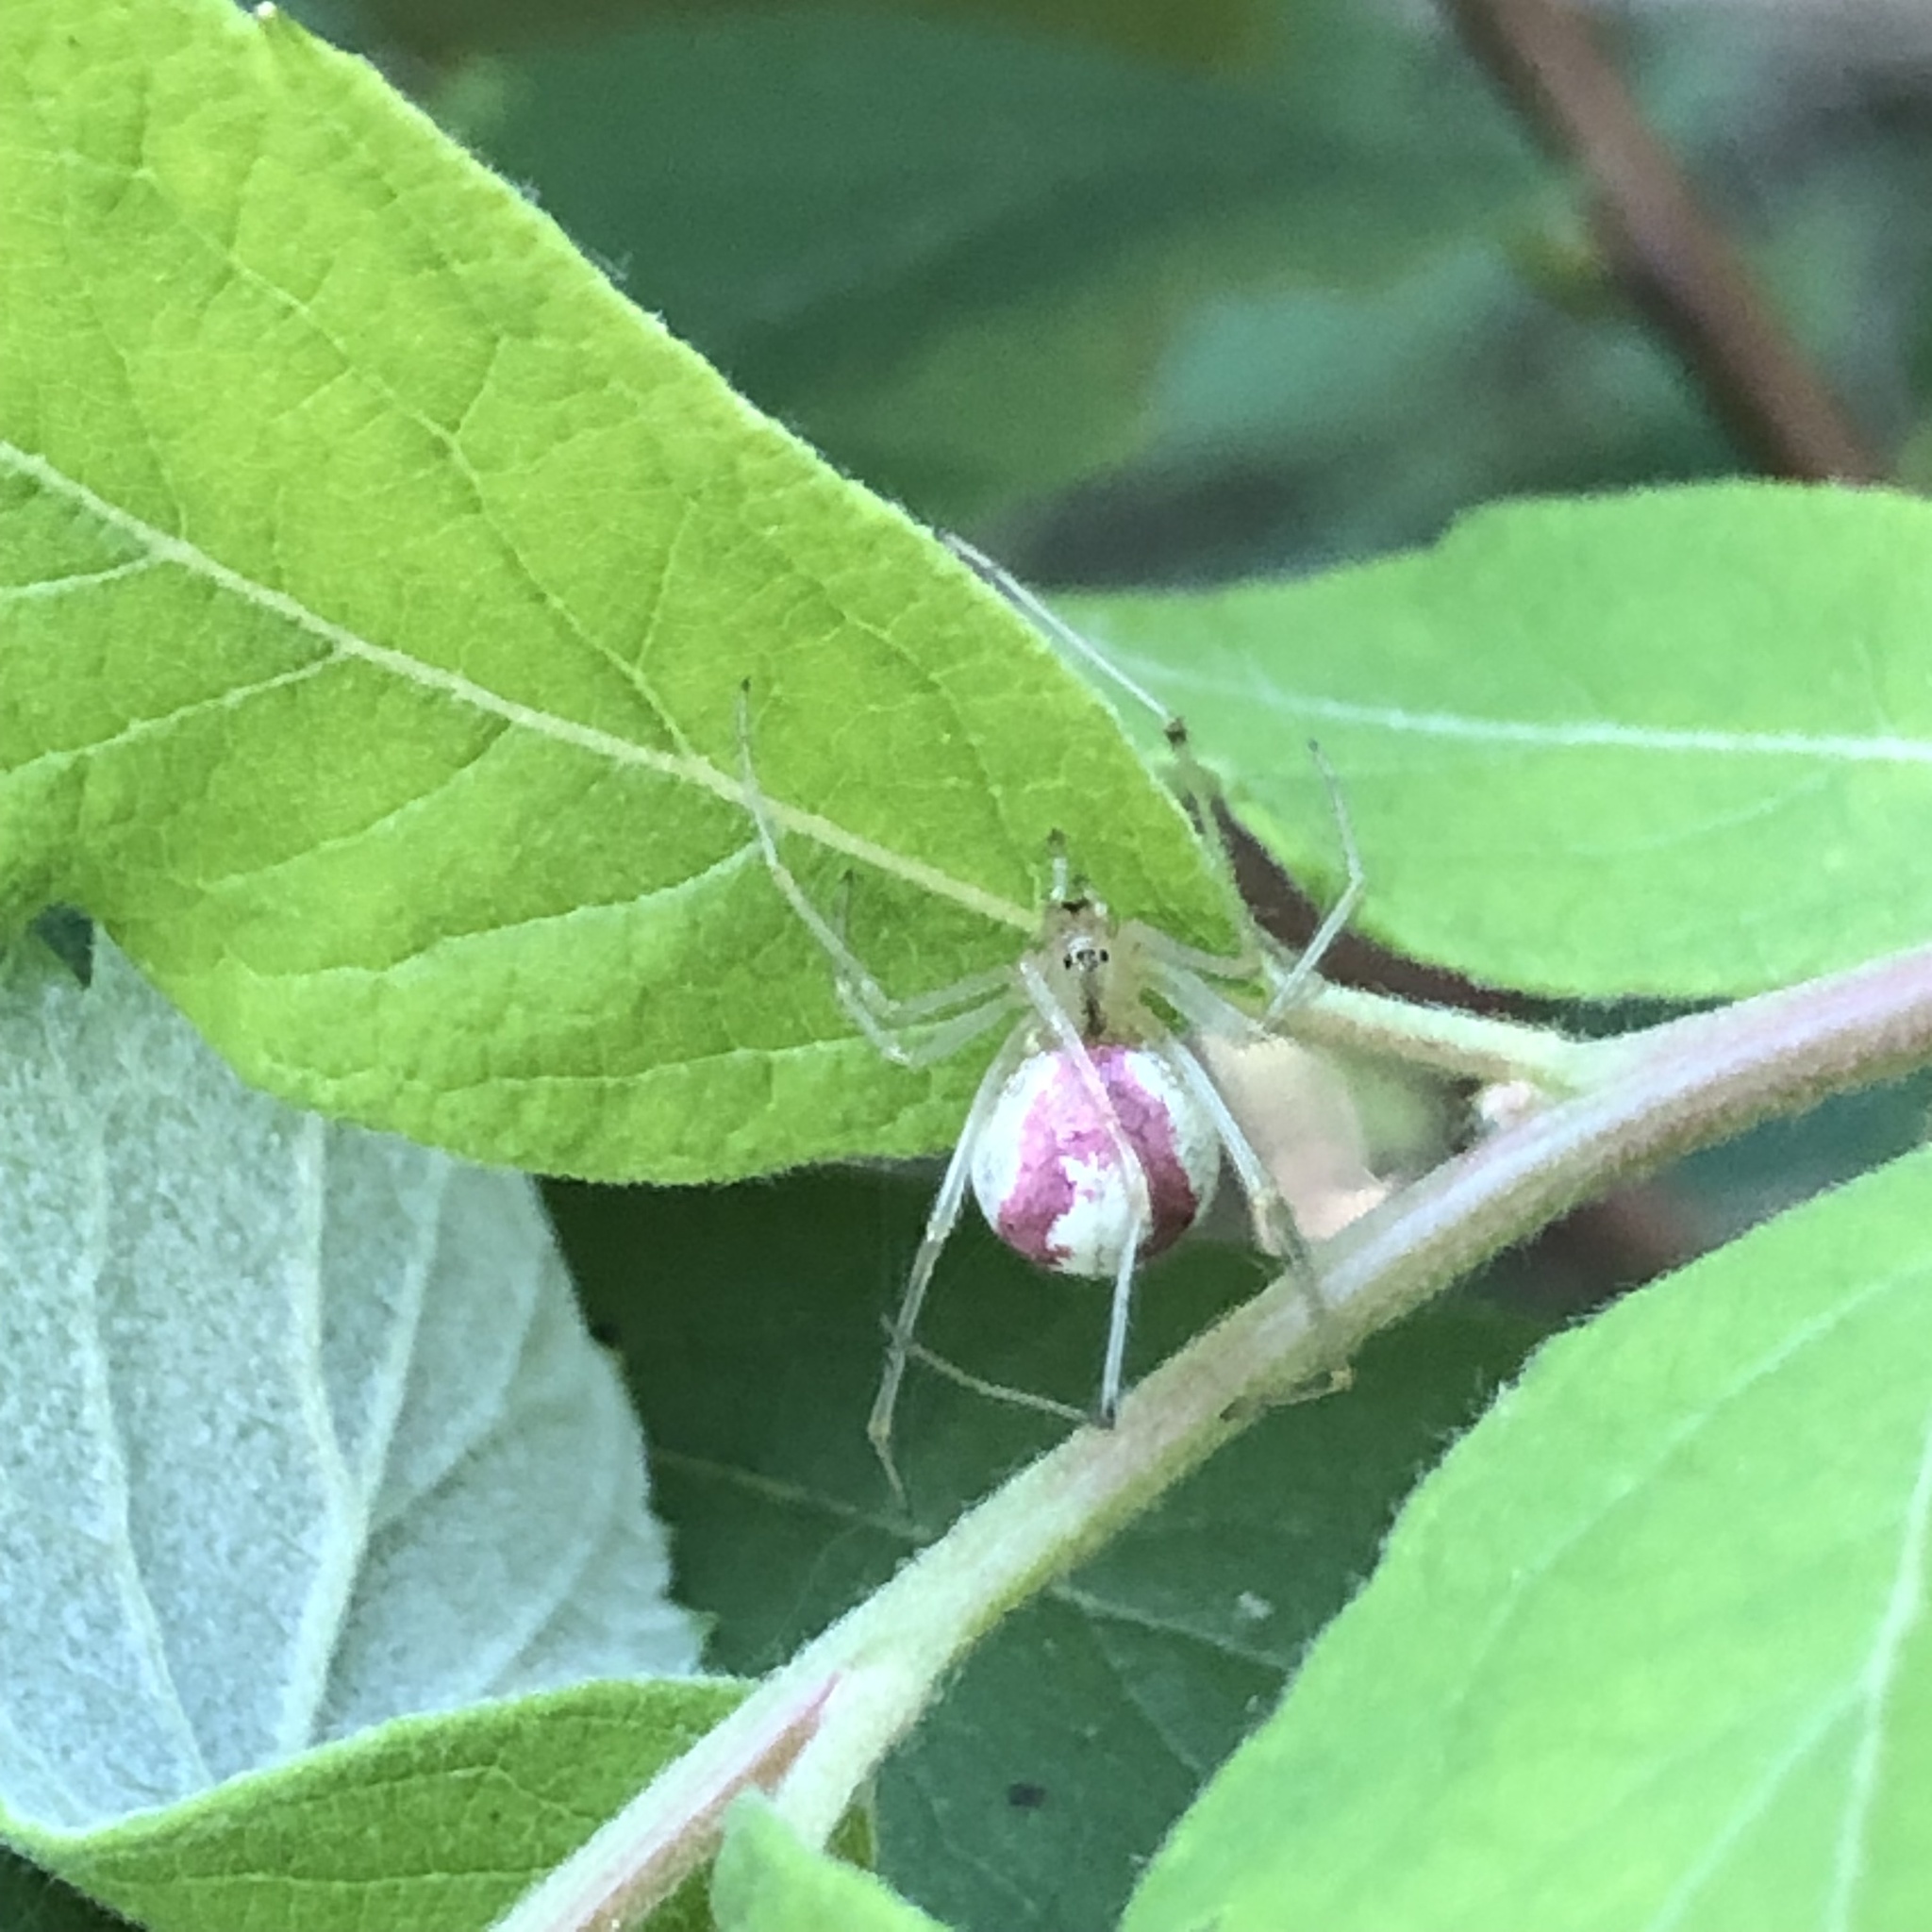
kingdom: Animalia
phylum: Arthropoda
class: Arachnida
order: Araneae
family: Theridiidae
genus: Enoplognatha
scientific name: Enoplognatha ovata
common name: Common candy-striped spider
